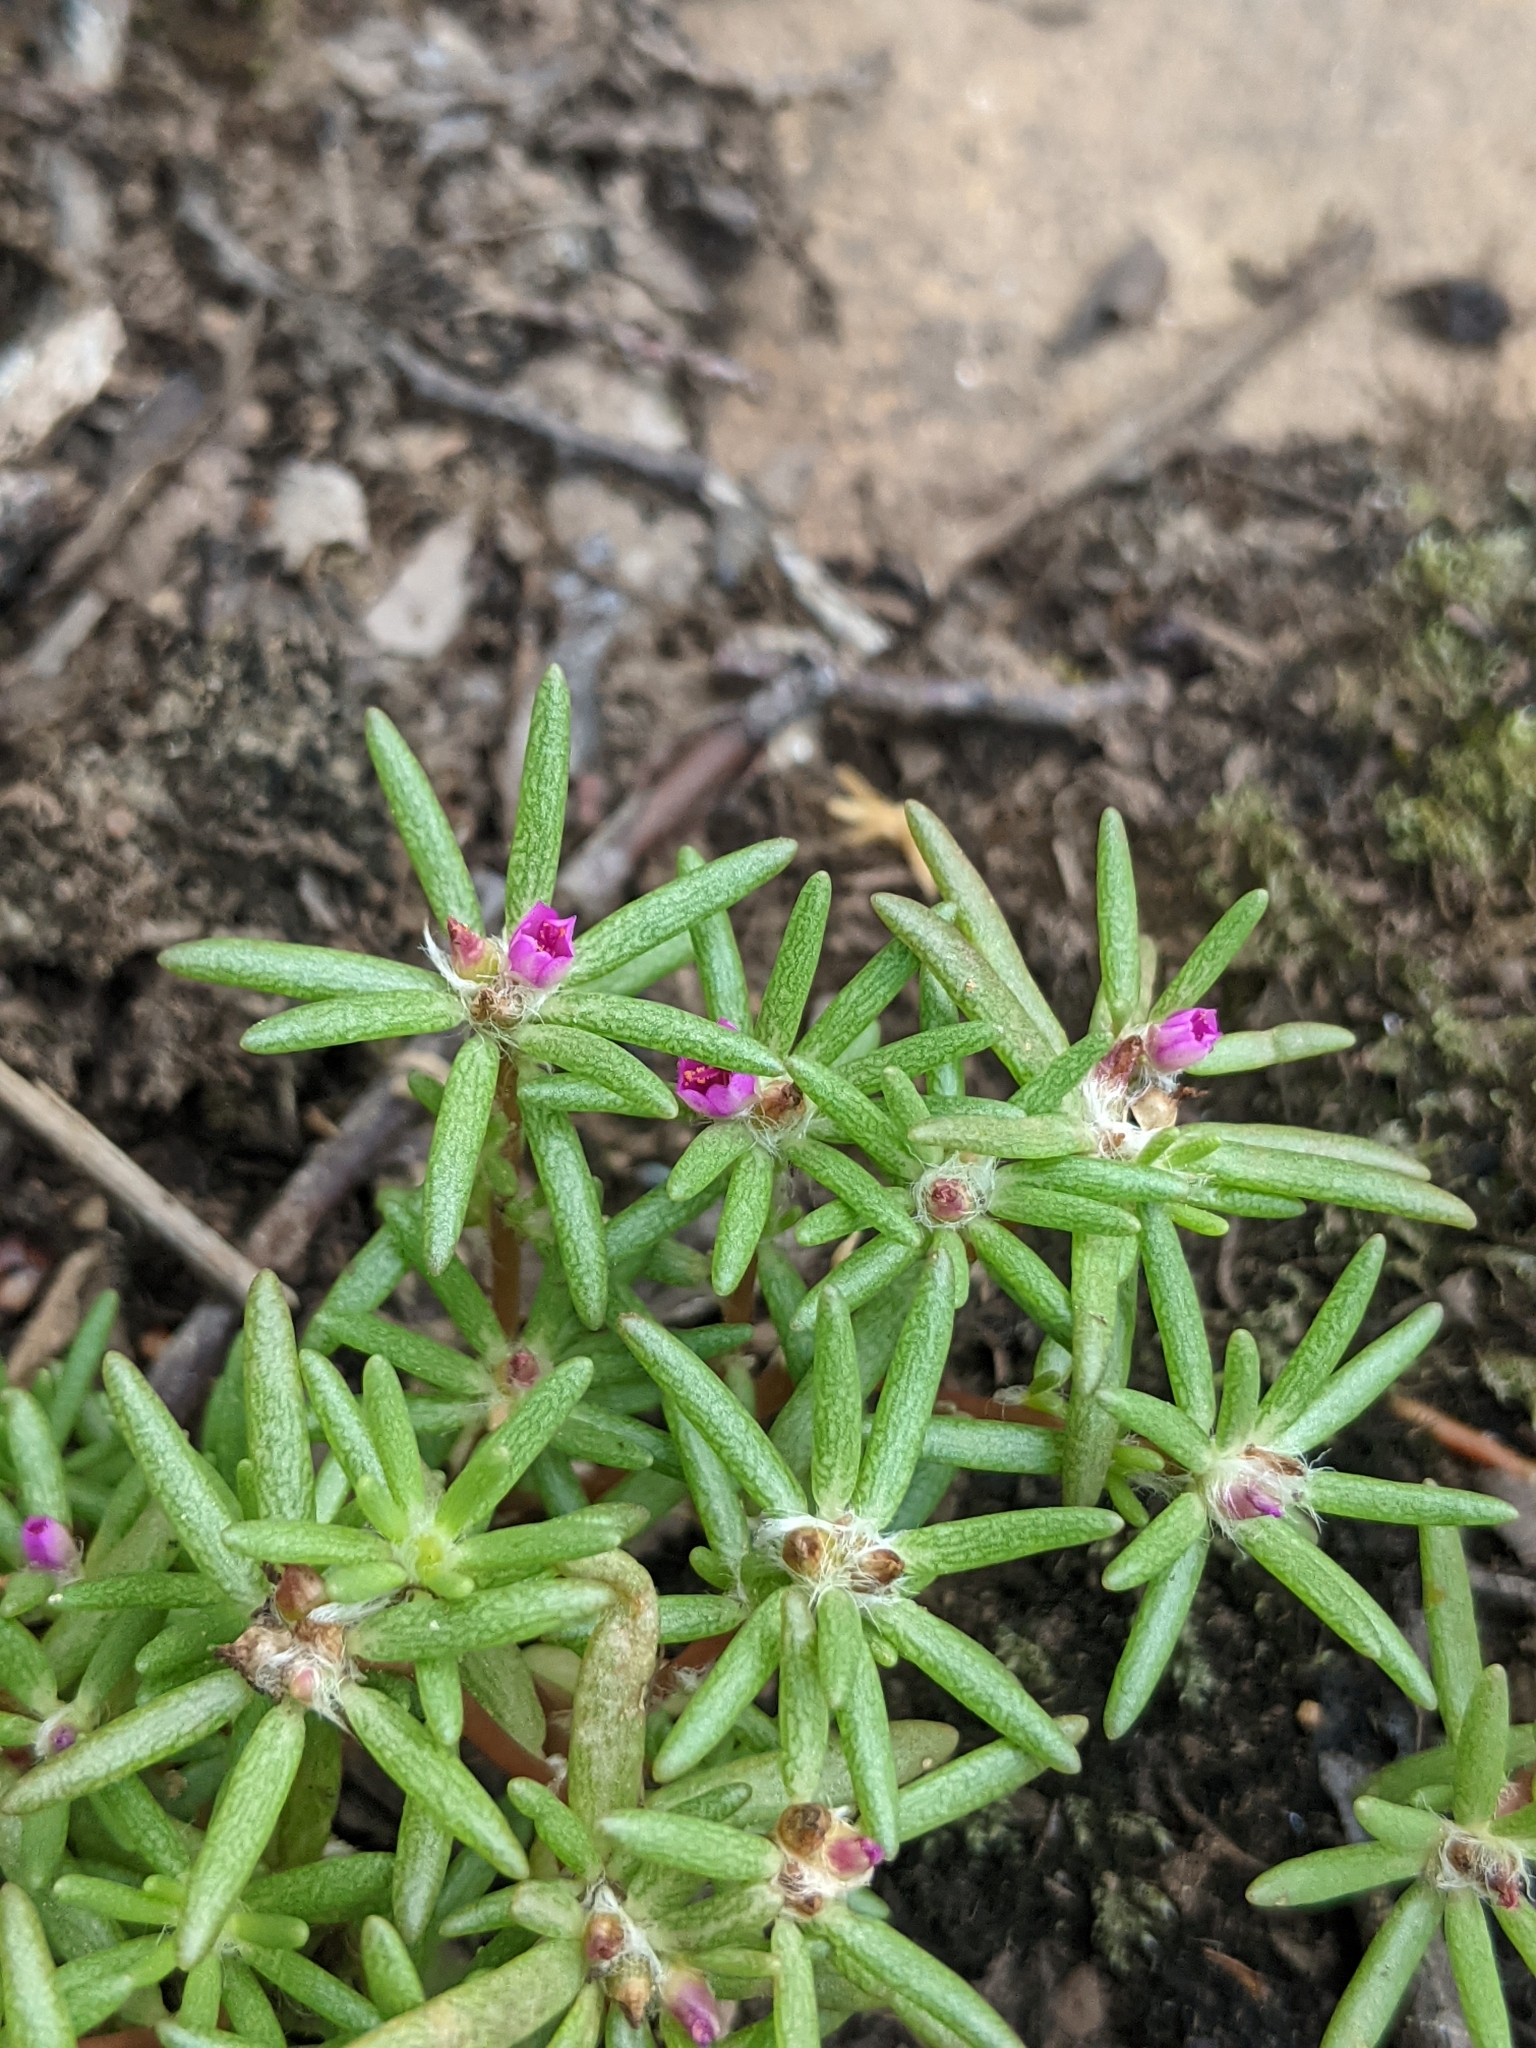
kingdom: Plantae
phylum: Tracheophyta
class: Magnoliopsida
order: Caryophyllales
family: Portulacaceae
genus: Portulaca
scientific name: Portulaca pilosa
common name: Kiss me quick
